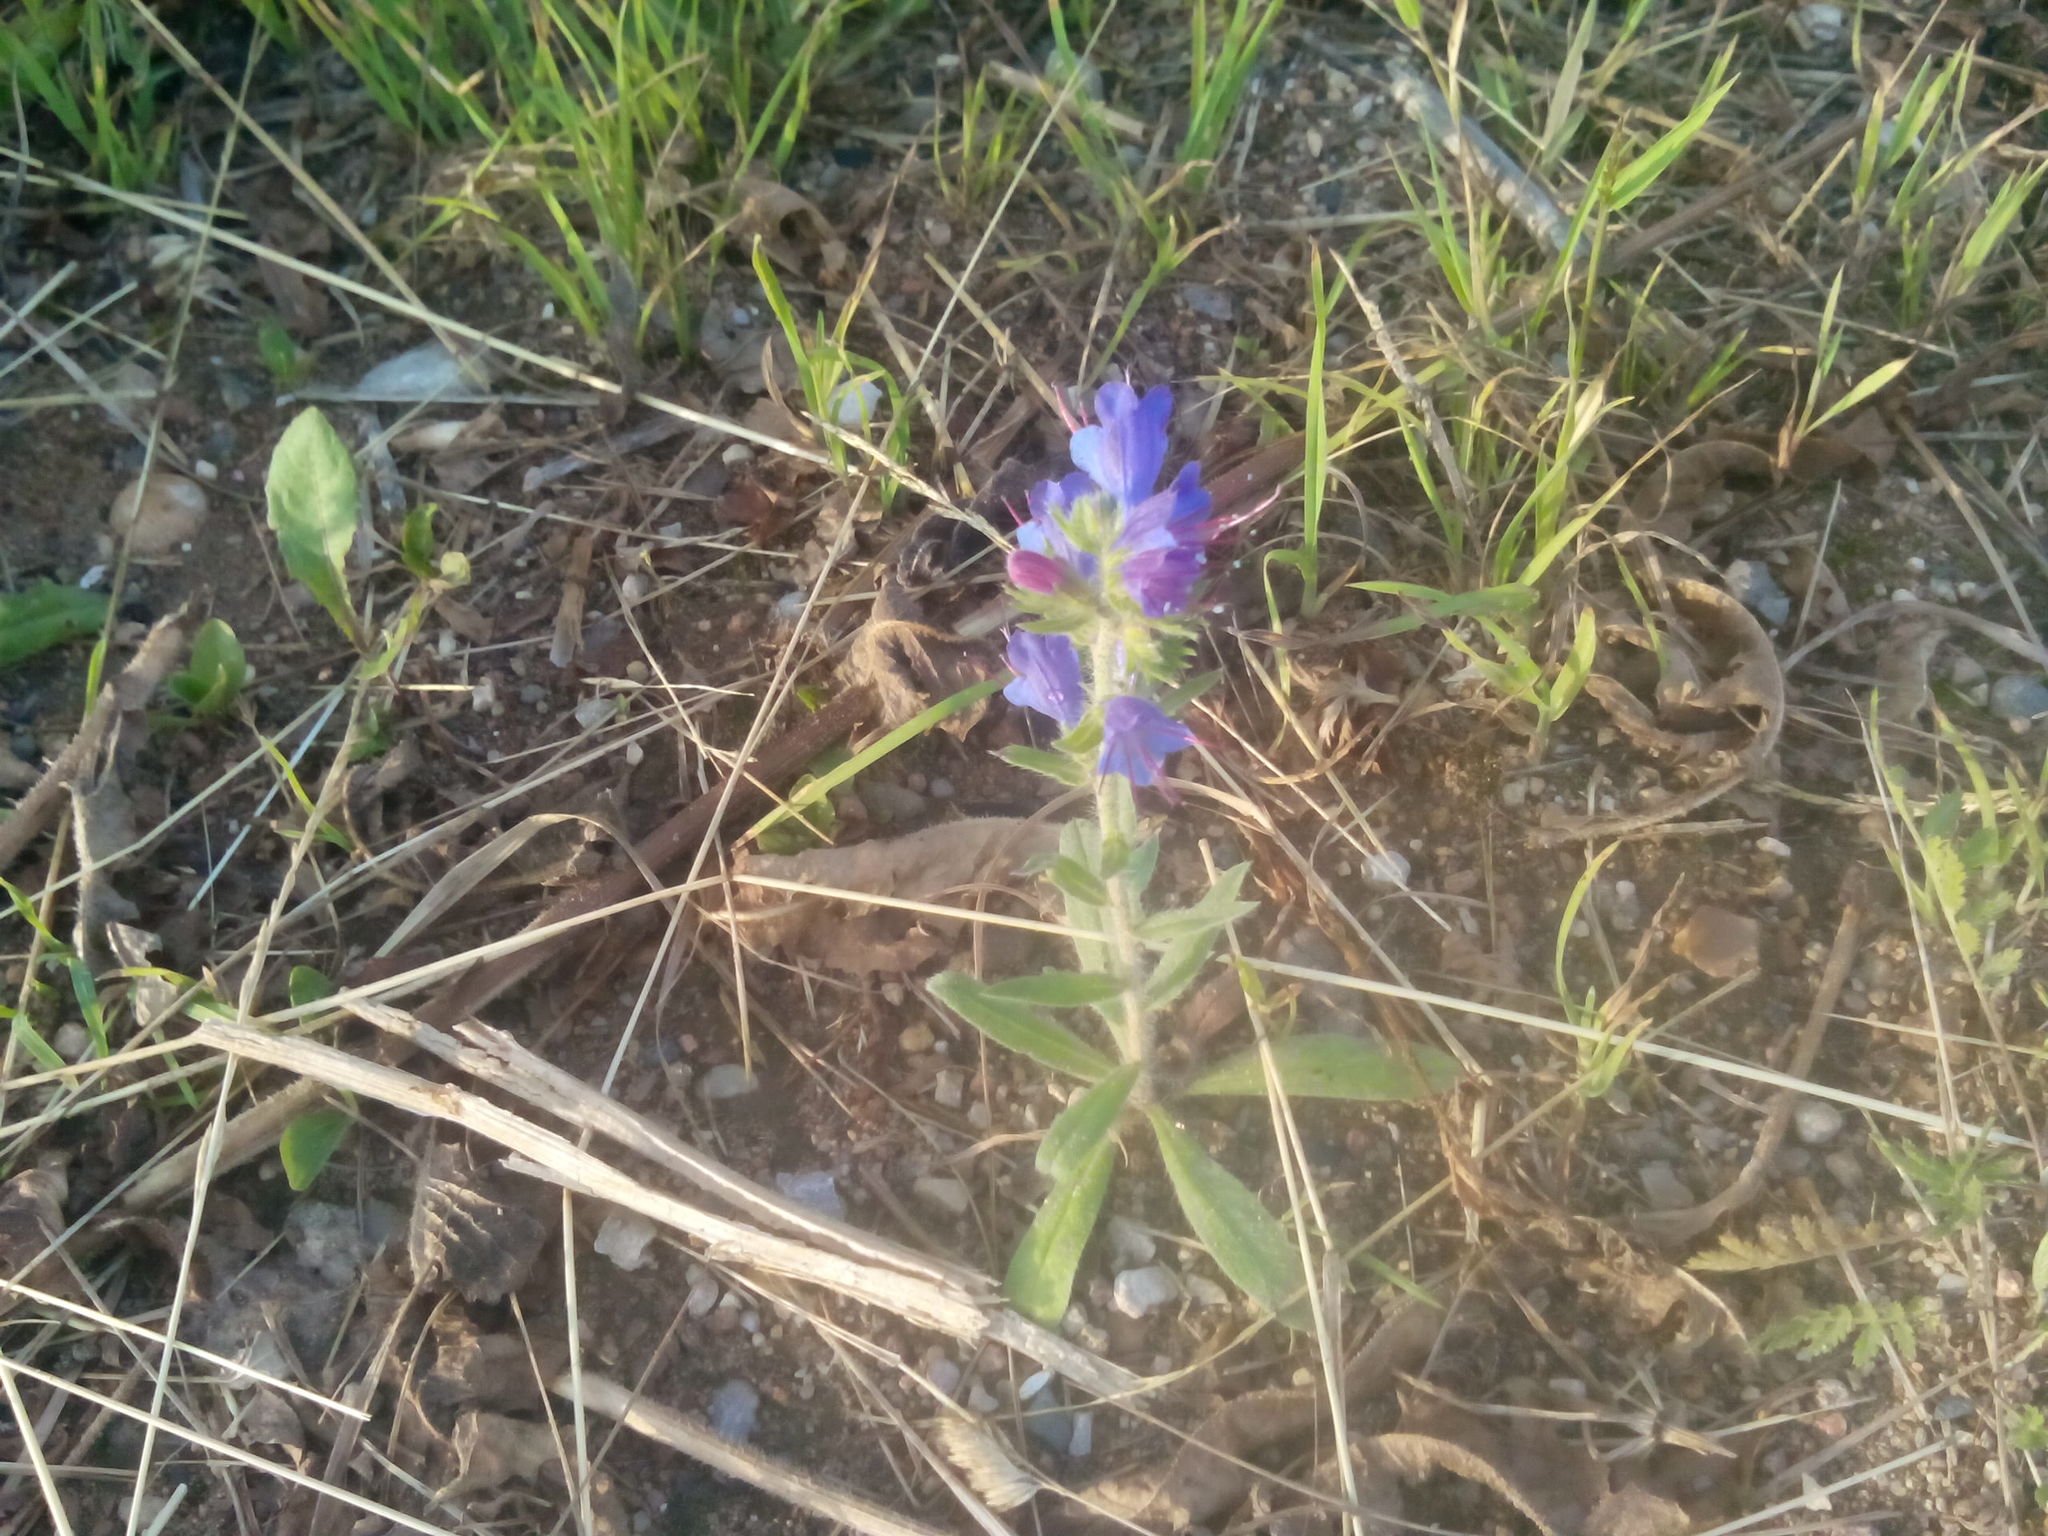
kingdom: Plantae
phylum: Tracheophyta
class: Magnoliopsida
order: Boraginales
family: Boraginaceae
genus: Echium
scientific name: Echium vulgare
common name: Common viper's bugloss
